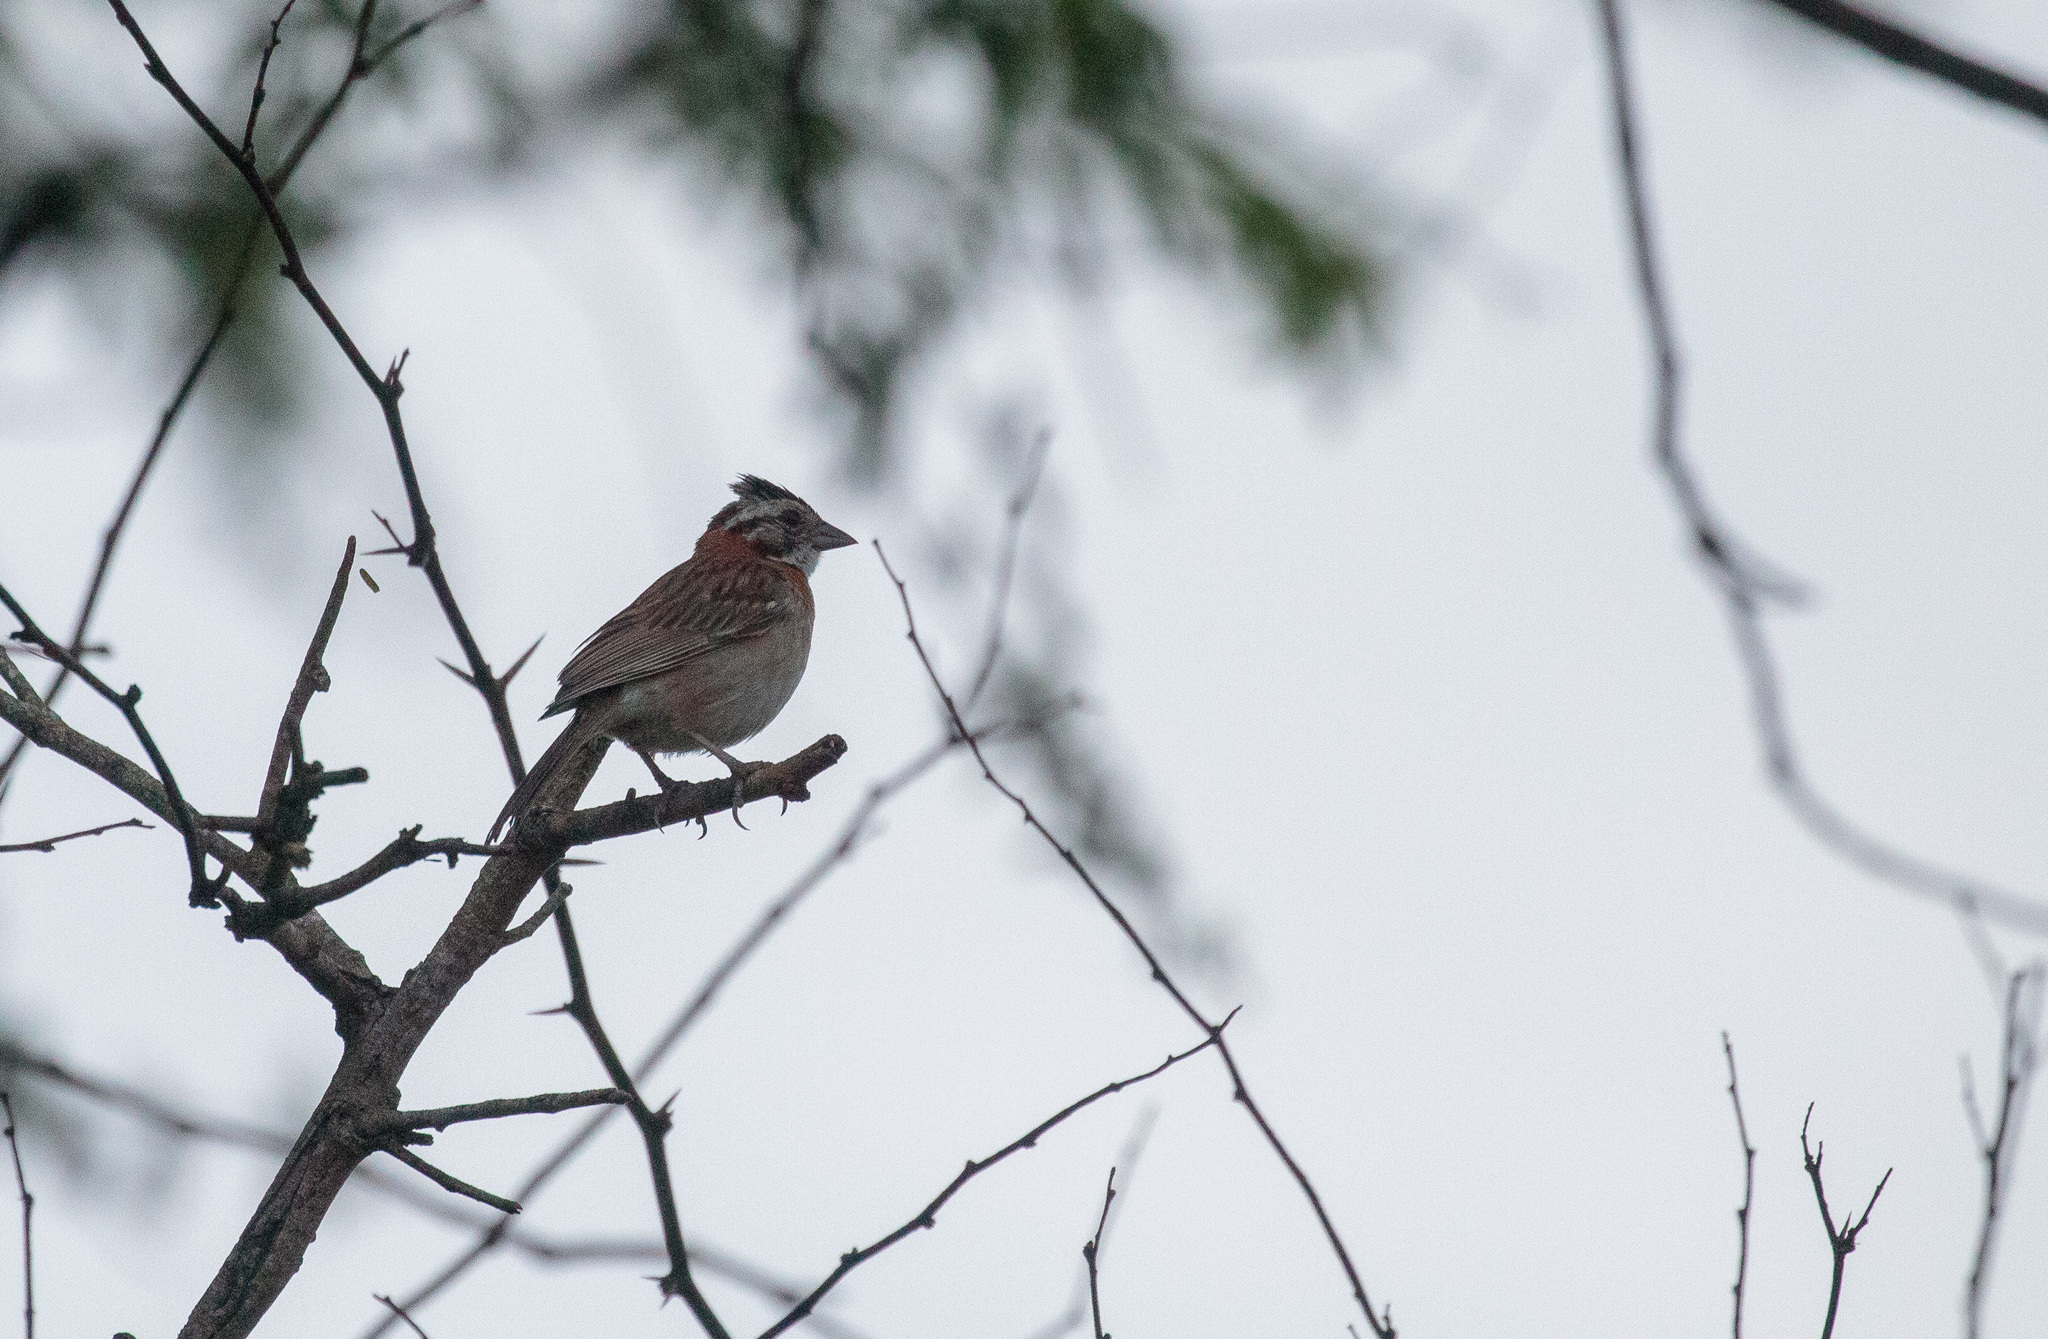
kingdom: Animalia
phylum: Chordata
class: Aves
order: Passeriformes
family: Passerellidae
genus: Zonotrichia
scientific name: Zonotrichia capensis
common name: Rufous-collared sparrow
